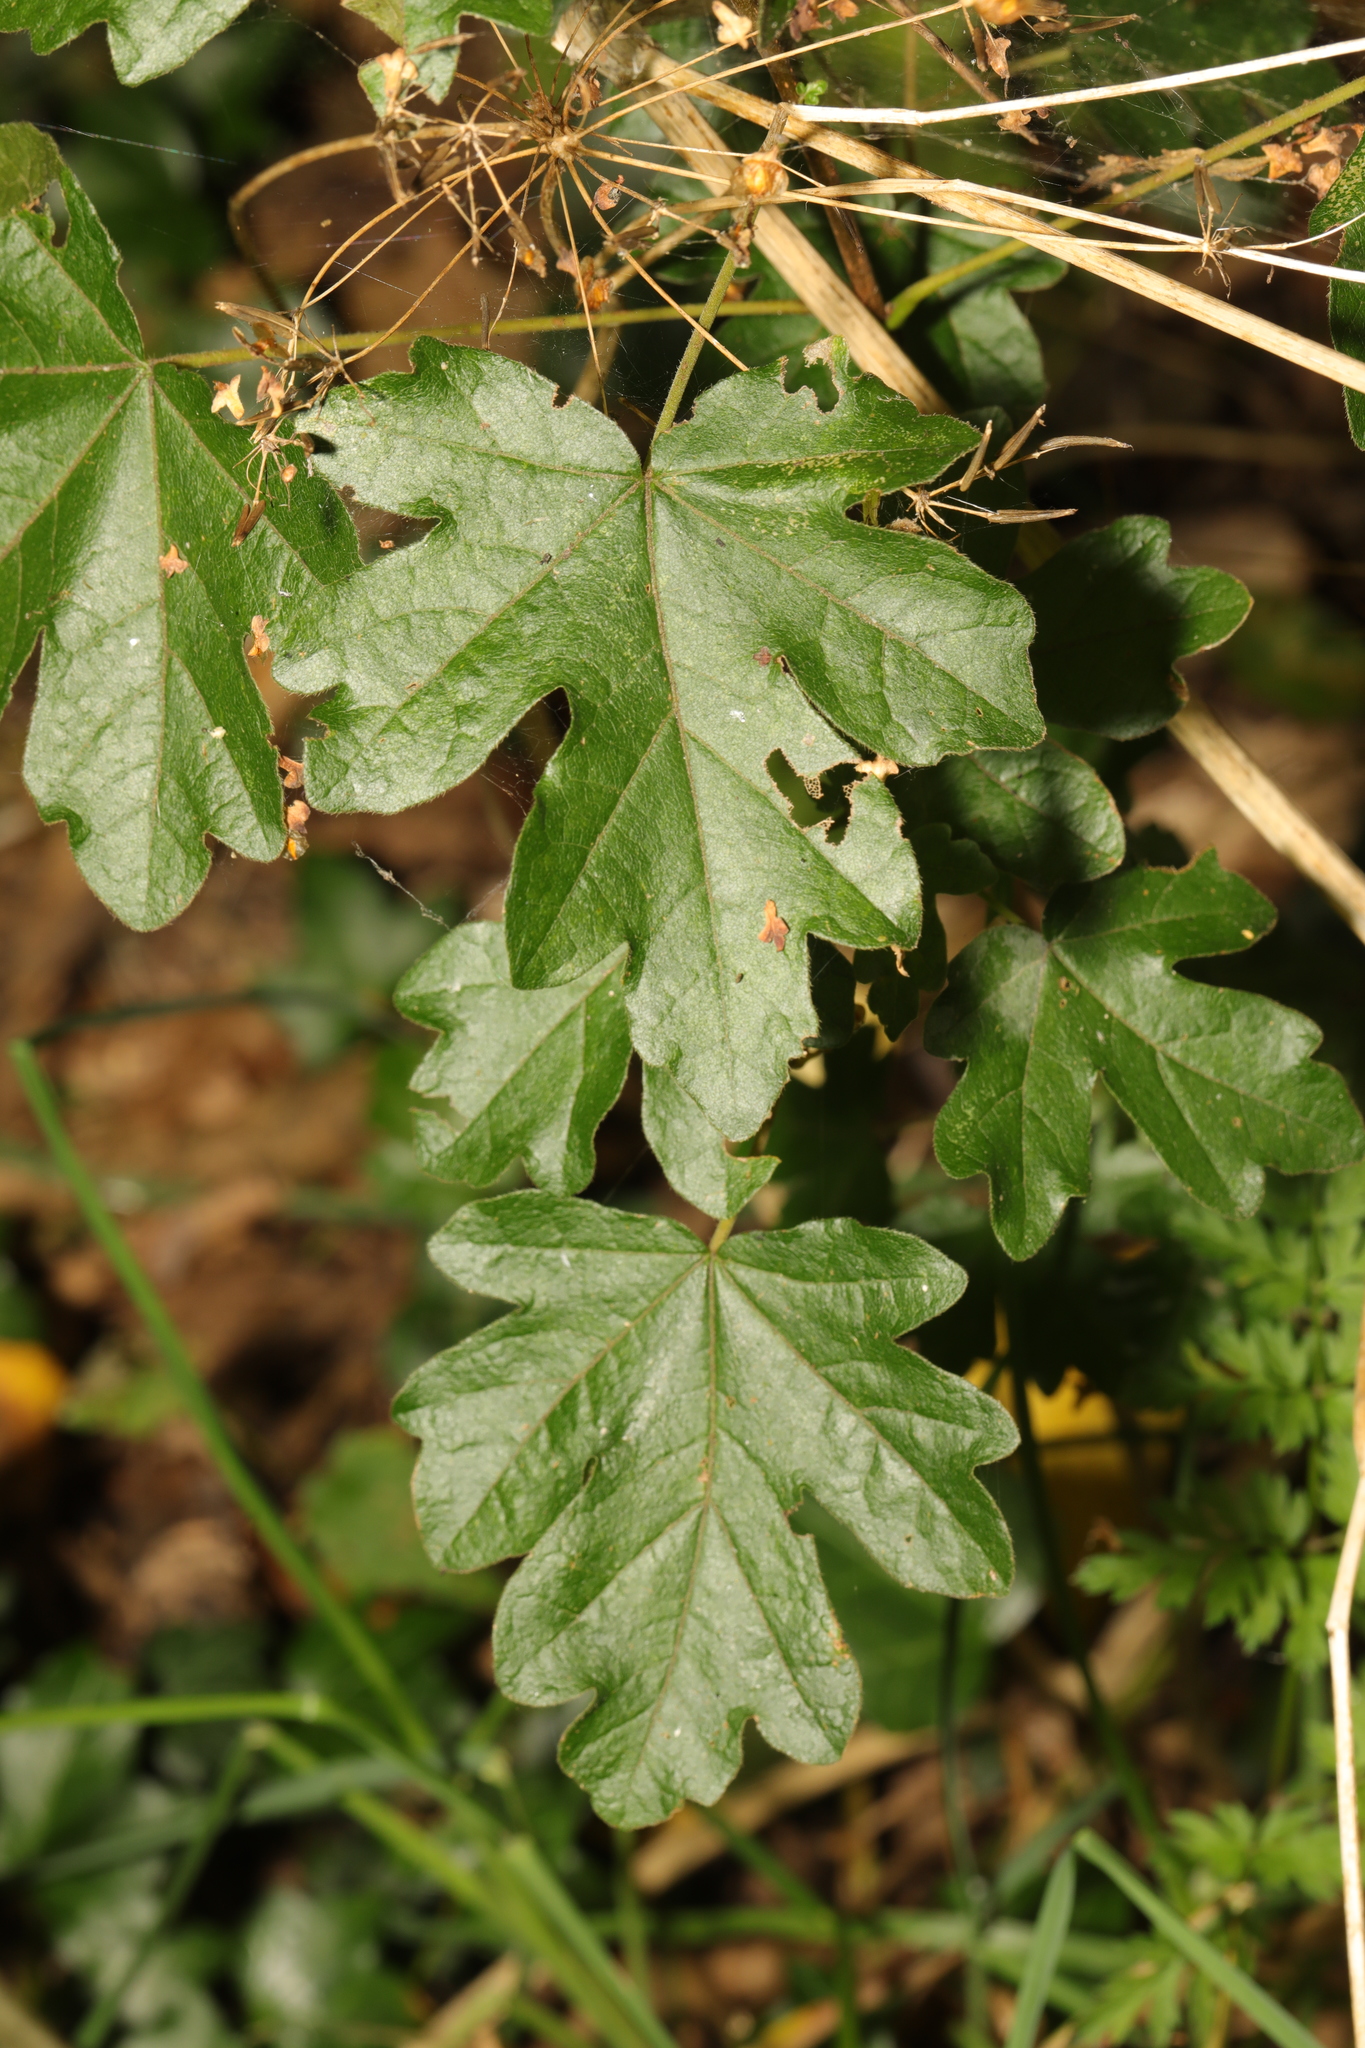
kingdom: Plantae
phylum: Tracheophyta
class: Magnoliopsida
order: Sapindales
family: Sapindaceae
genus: Acer
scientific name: Acer campestre
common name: Field maple
